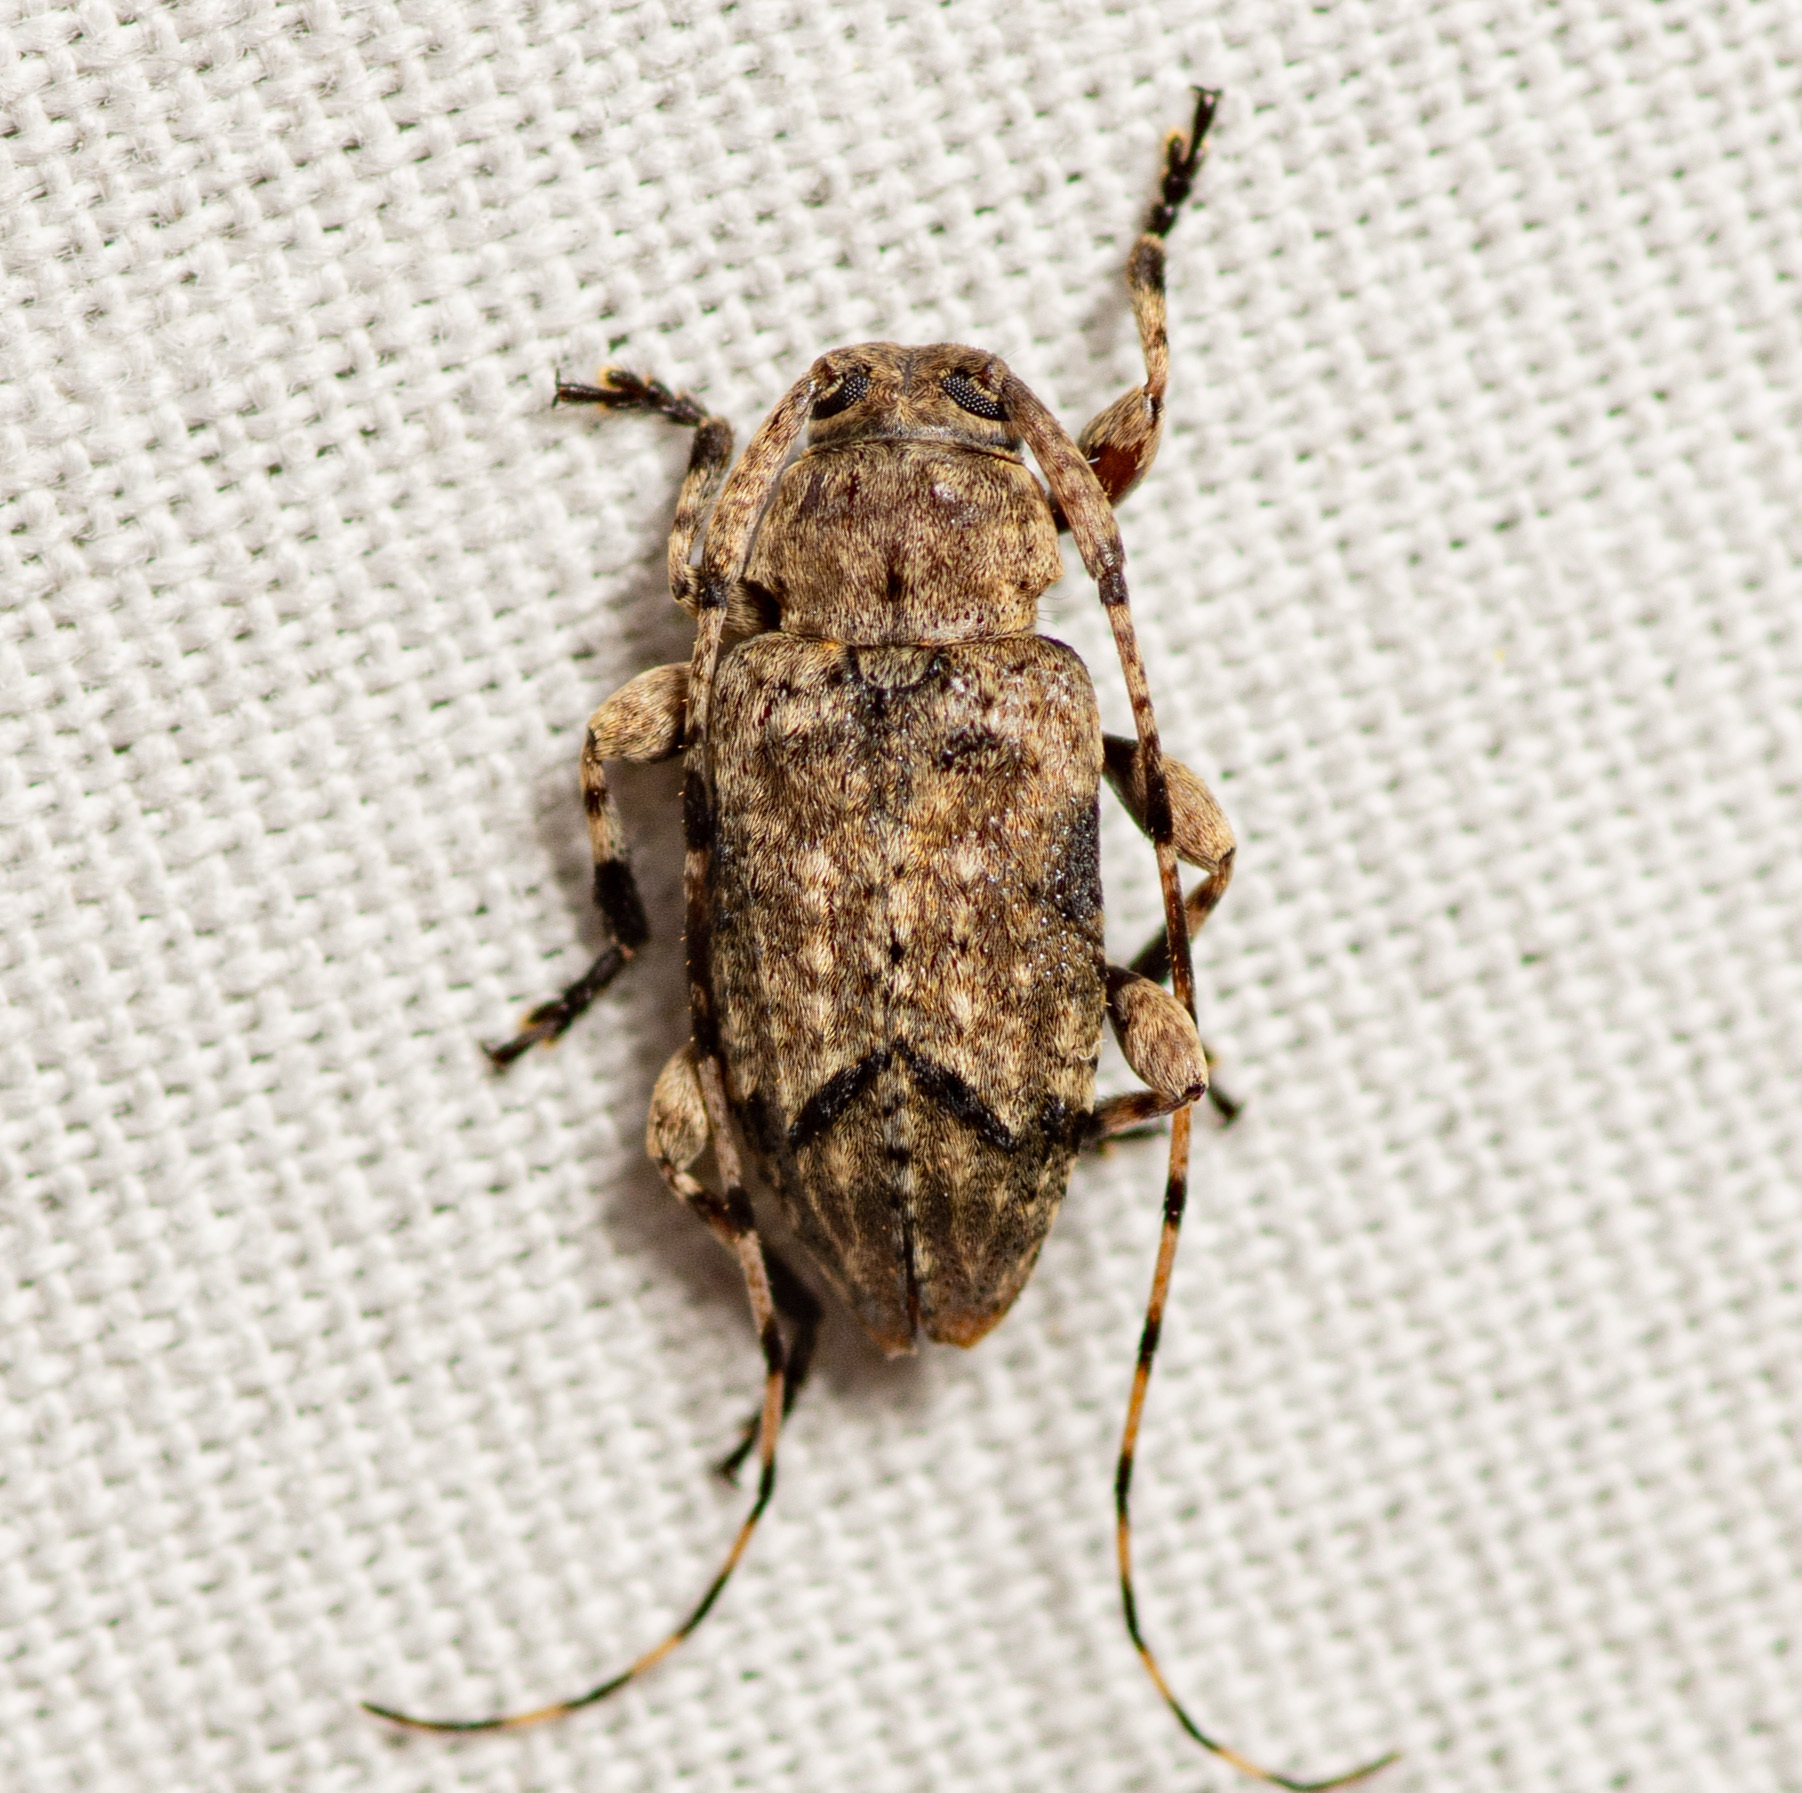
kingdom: Animalia
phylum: Arthropoda
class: Insecta
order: Coleoptera
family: Cerambycidae
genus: Sternidius
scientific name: Sternidius mimeticus
